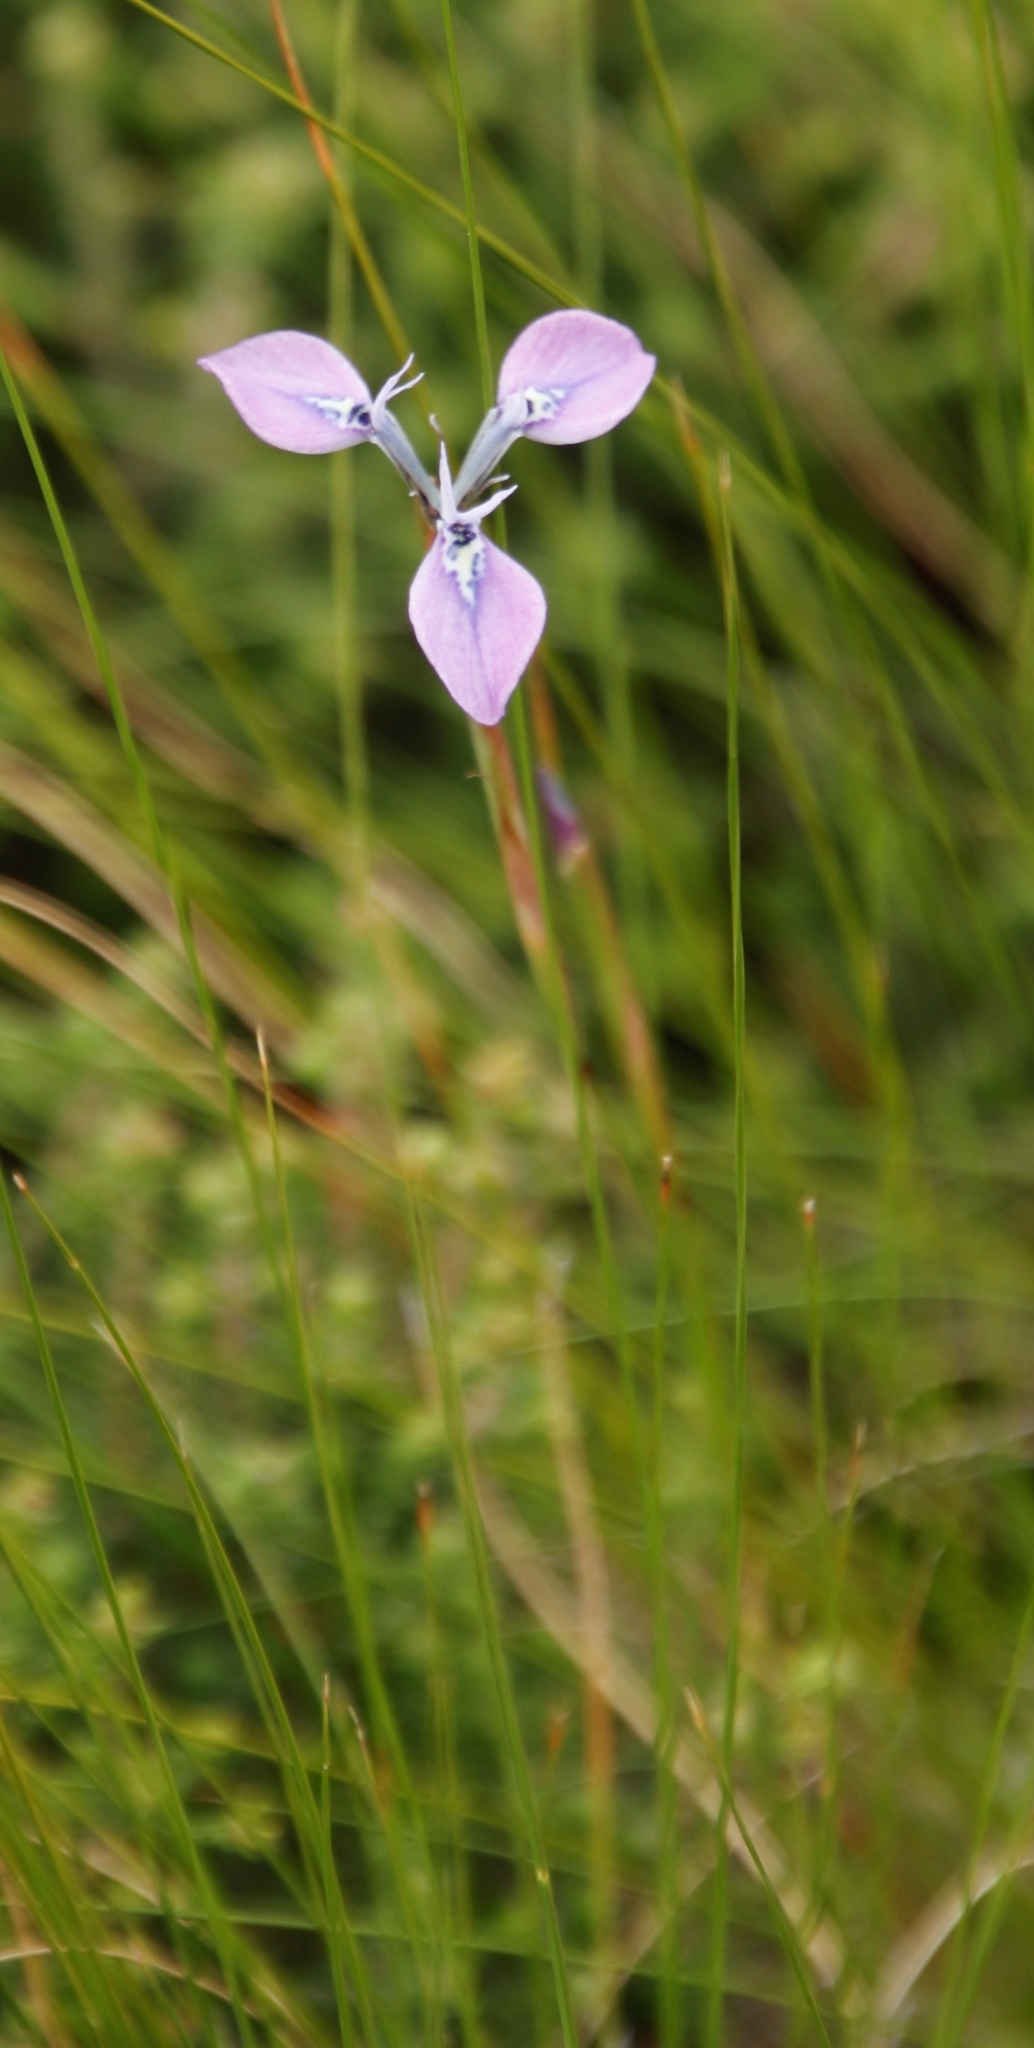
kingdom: Plantae
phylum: Tracheophyta
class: Liliopsida
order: Asparagales
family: Iridaceae
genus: Moraea
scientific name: Moraea tripetala
